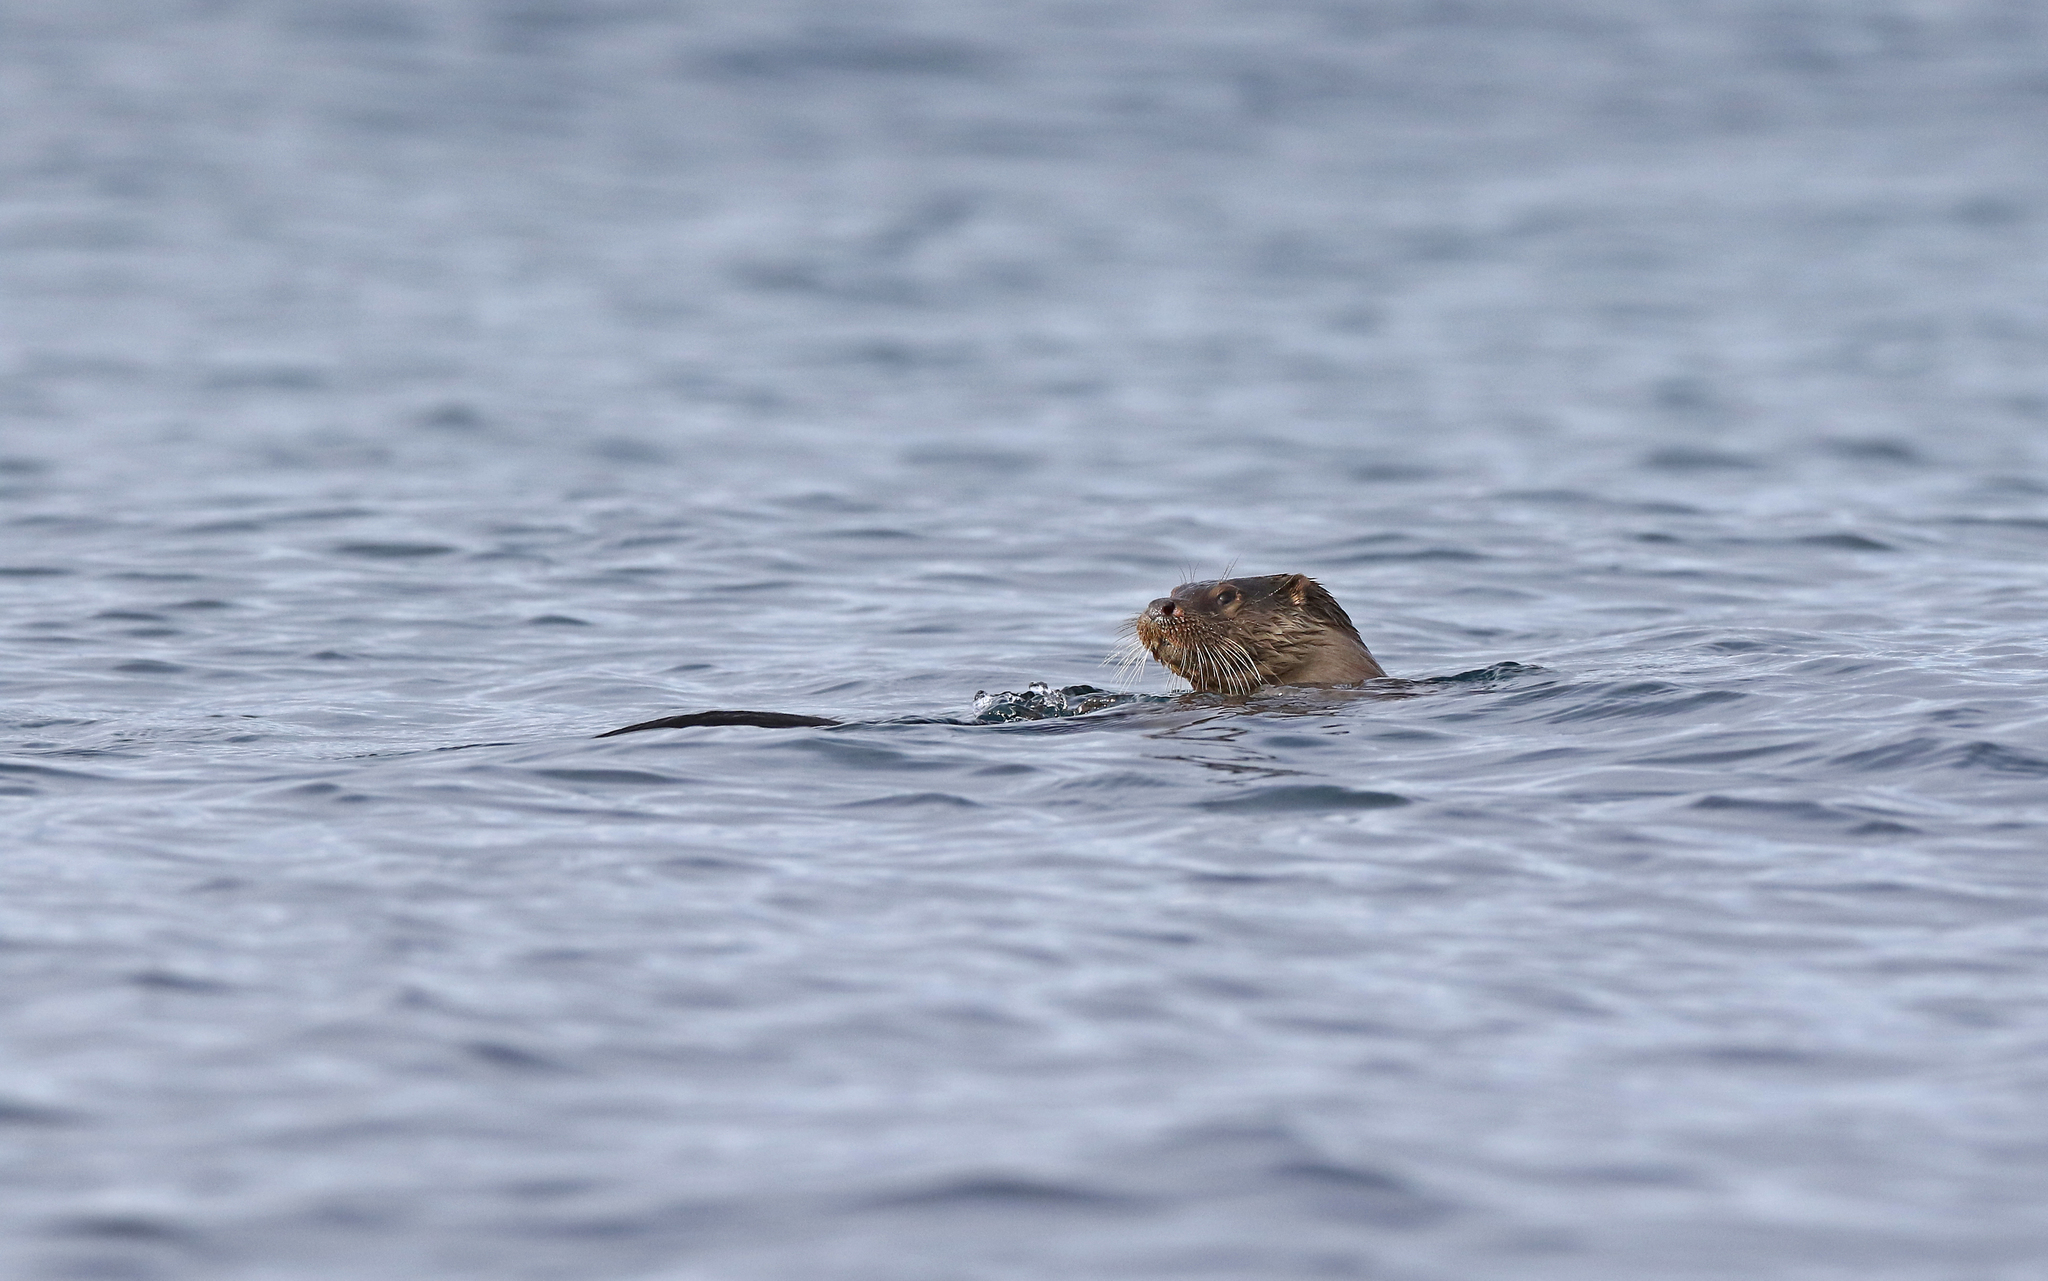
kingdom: Animalia
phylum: Chordata
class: Mammalia
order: Carnivora
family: Mustelidae
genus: Lutra
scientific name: Lutra lutra
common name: European otter
